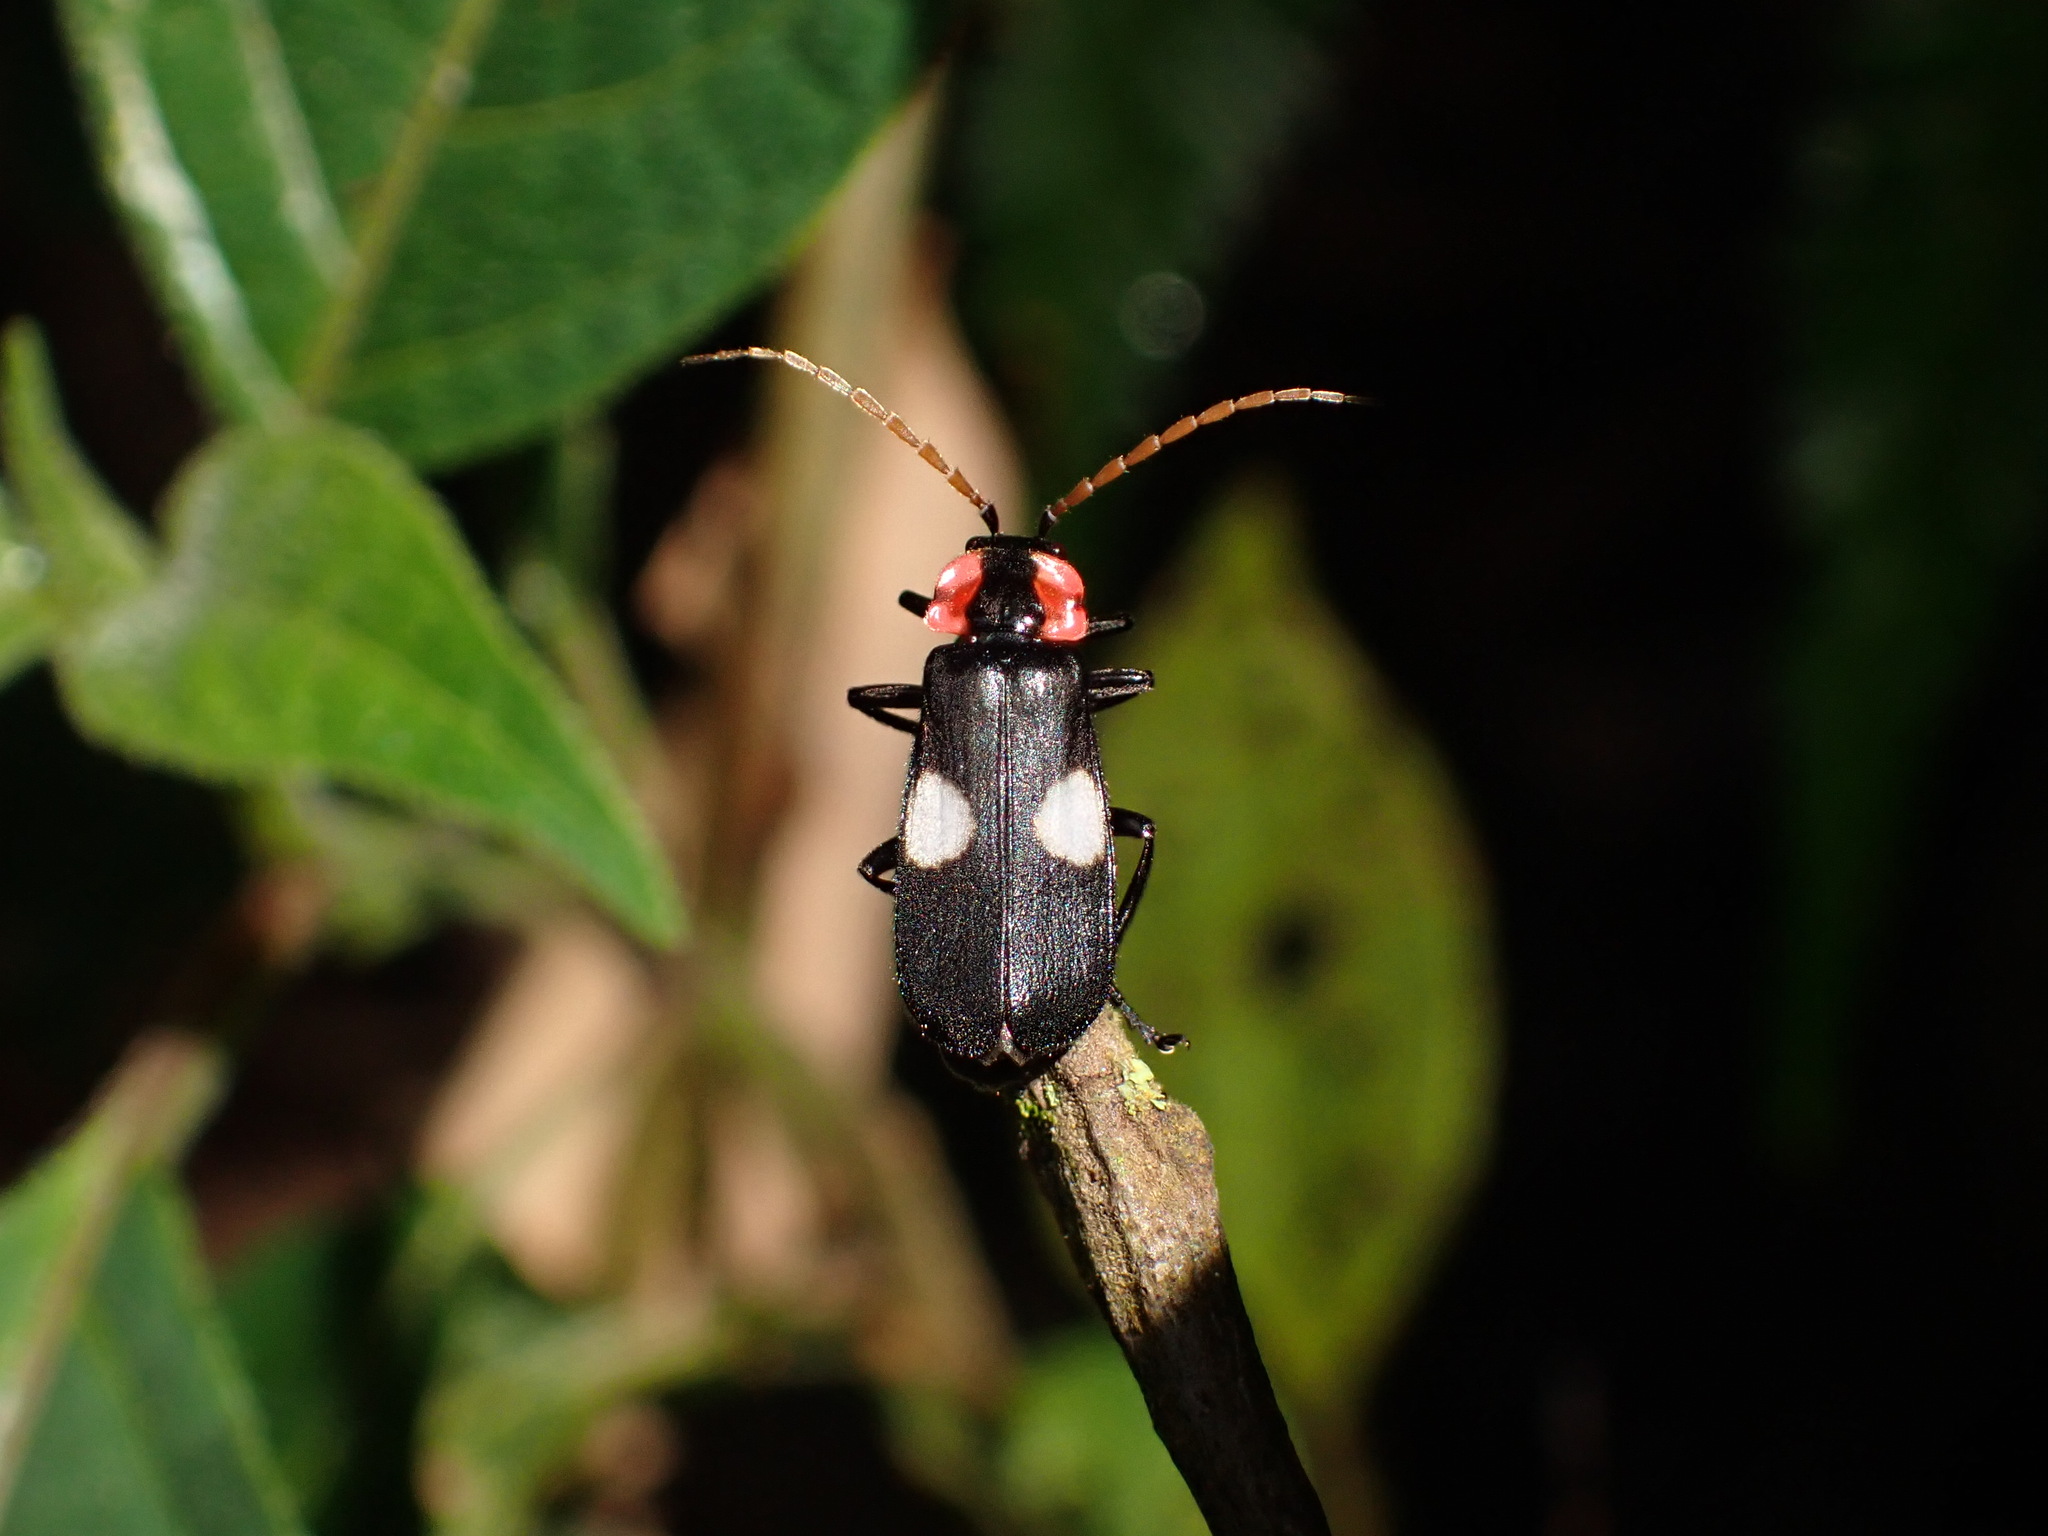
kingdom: Animalia
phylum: Arthropoda
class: Insecta
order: Coleoptera
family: Cantharidae
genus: Discodon
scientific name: Discodon tricolor
